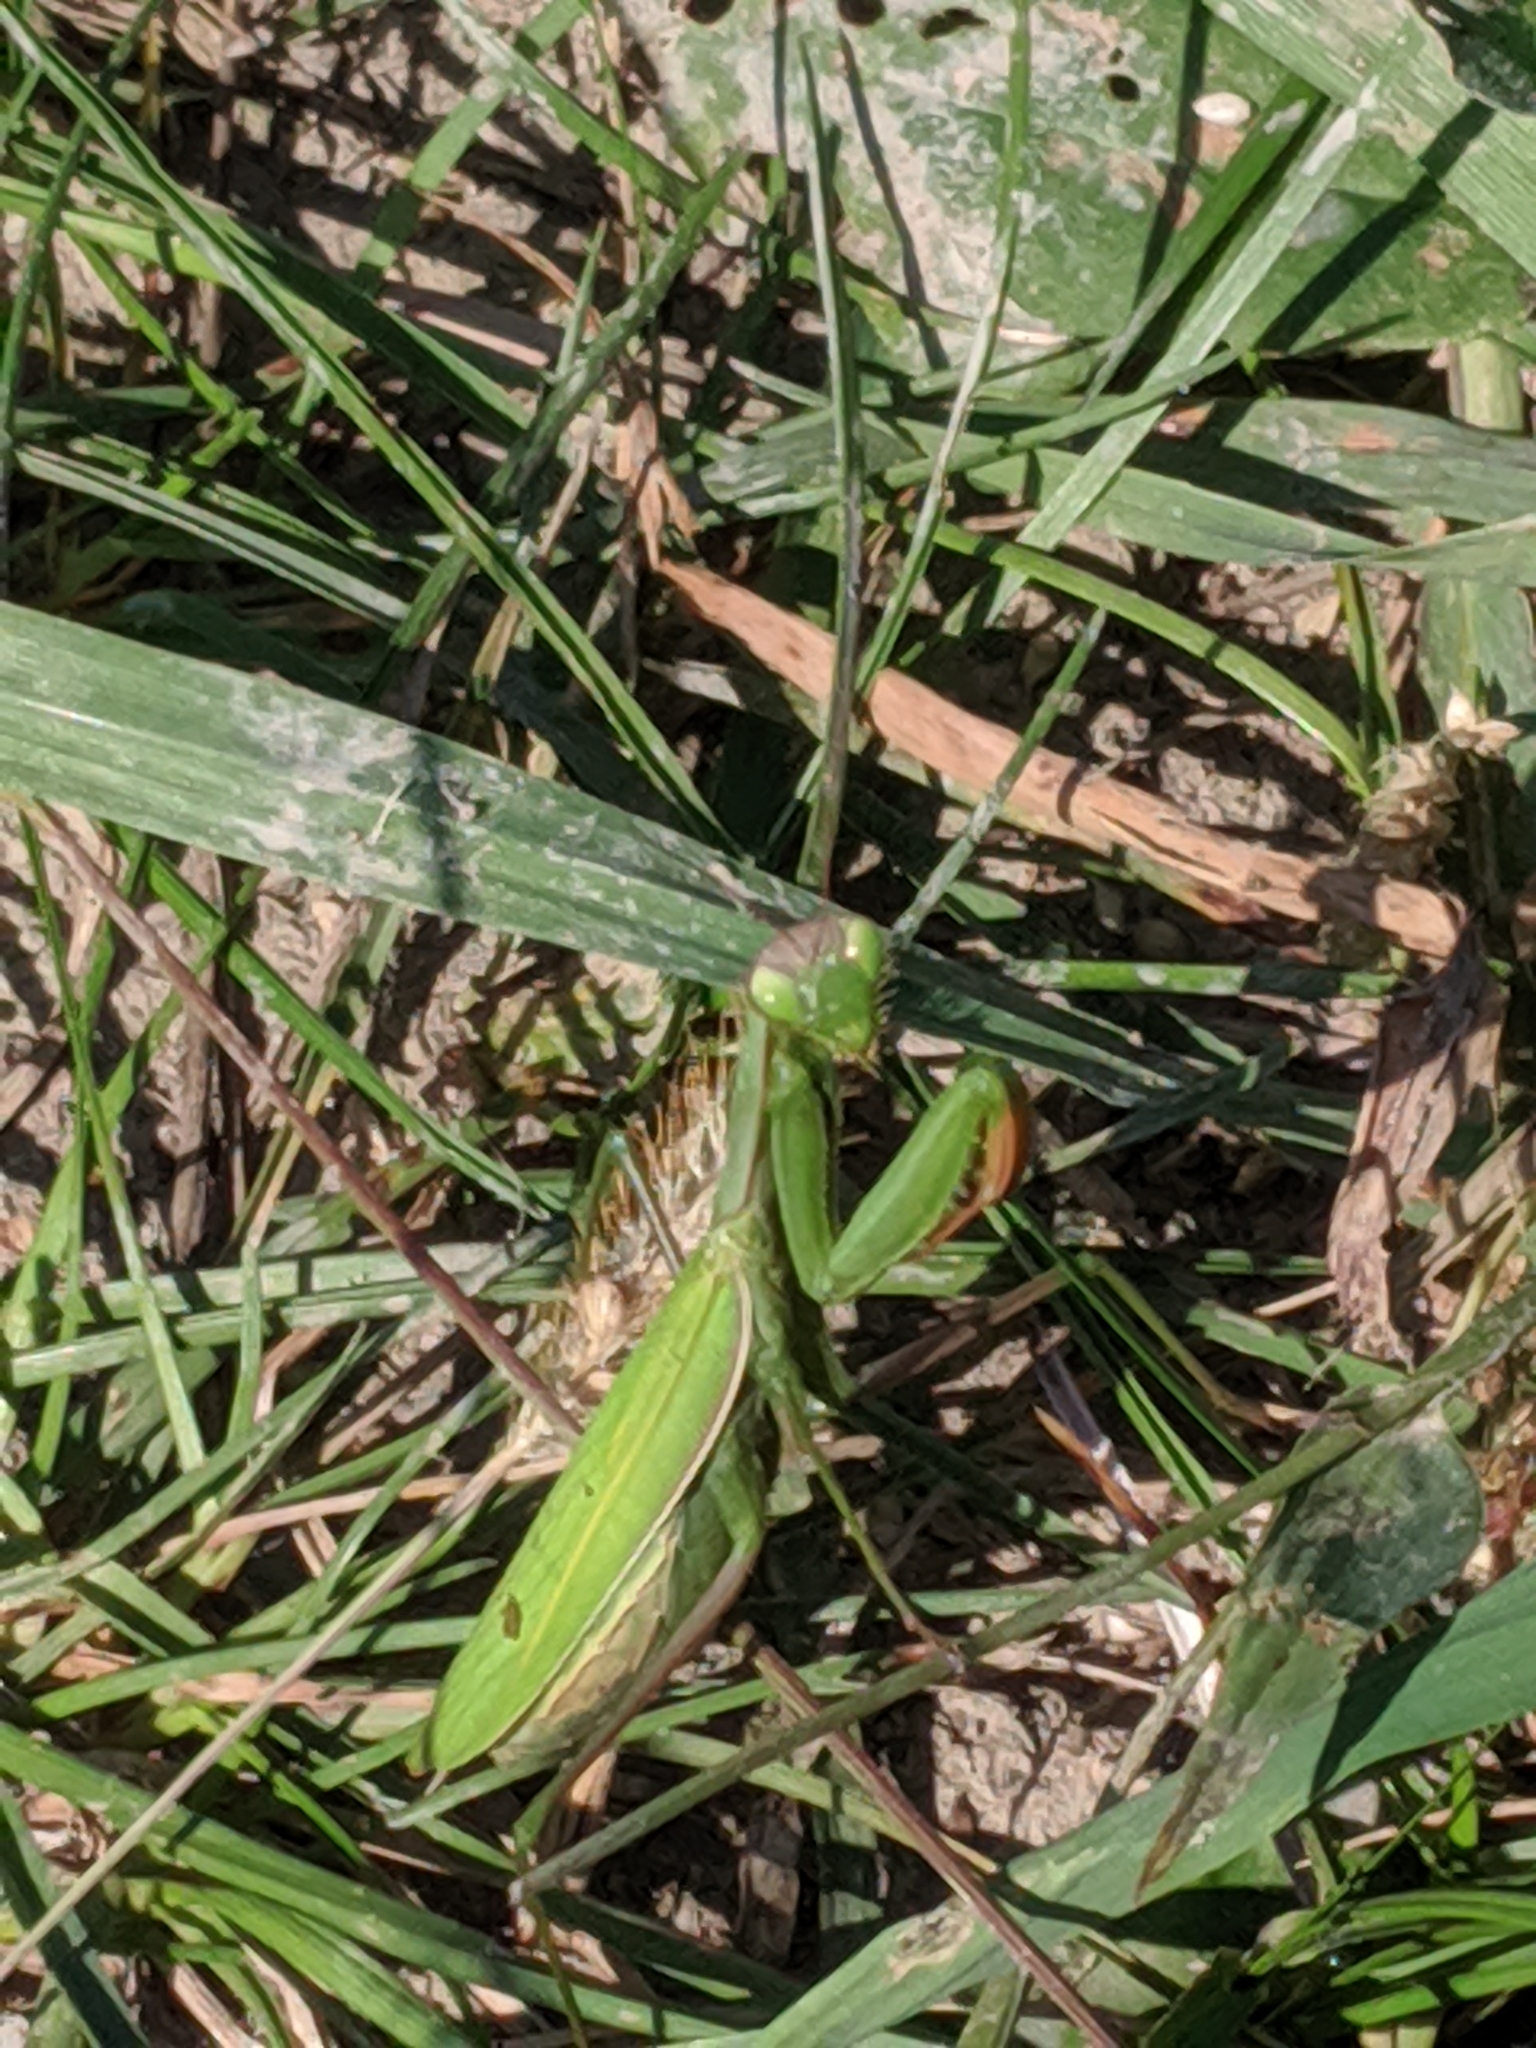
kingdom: Animalia
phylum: Arthropoda
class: Insecta
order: Mantodea
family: Mantidae
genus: Mantis
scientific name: Mantis religiosa
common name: Praying mantis
